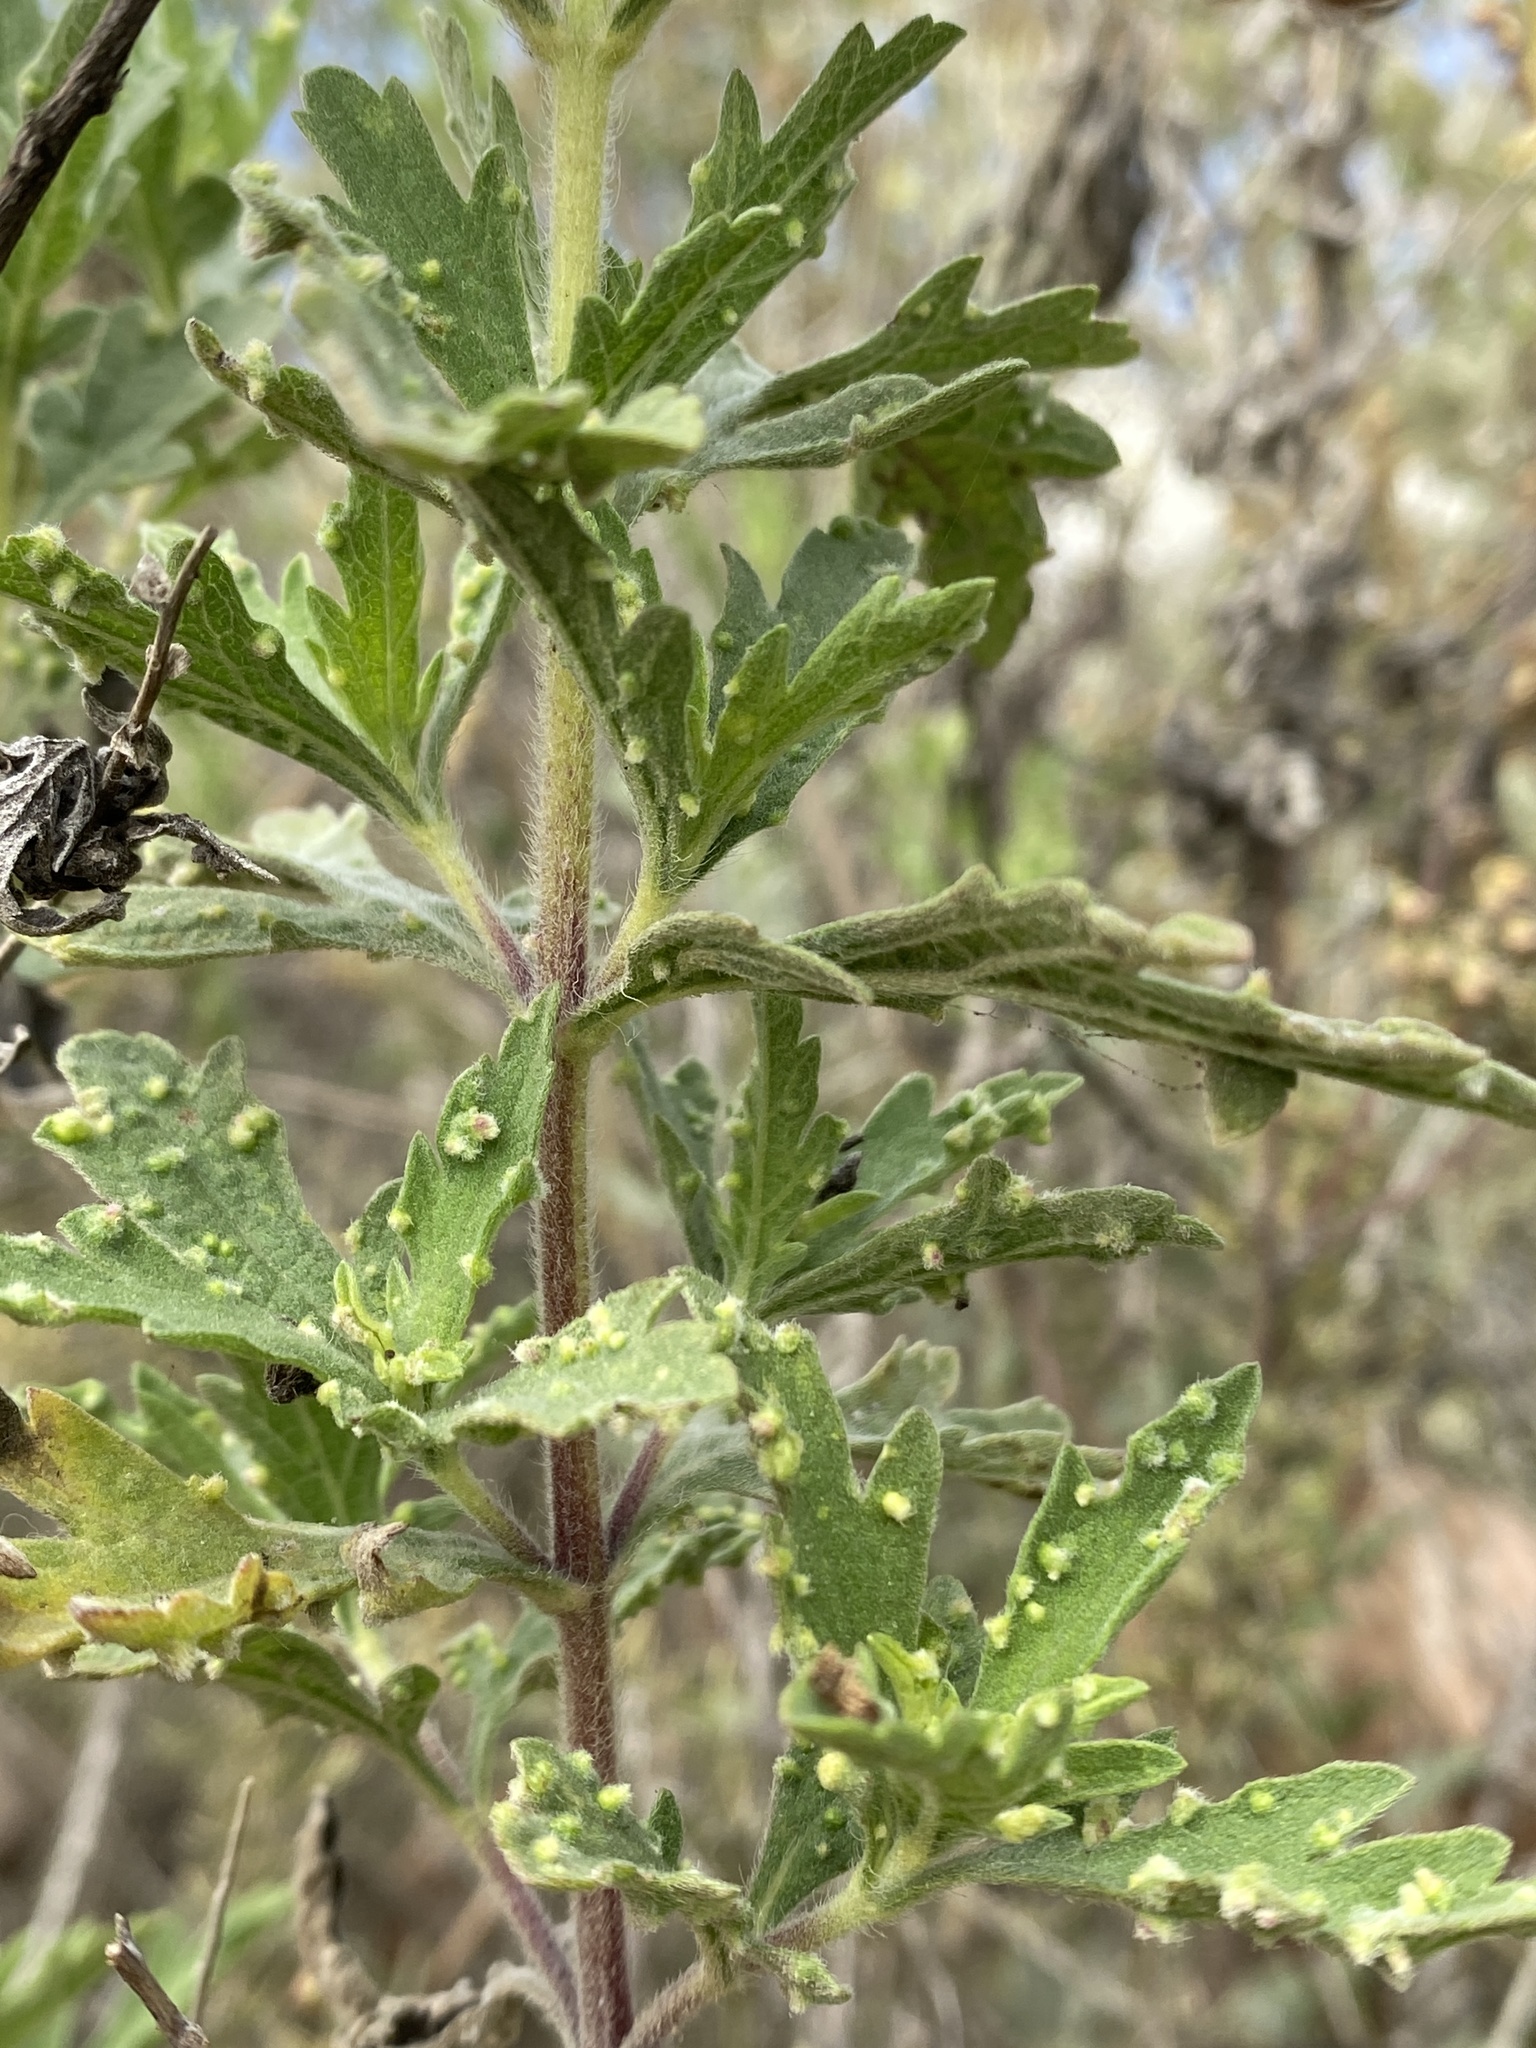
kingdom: Animalia
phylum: Arthropoda
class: Arachnida
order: Trombidiformes
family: Eriophyidae
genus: Aceria
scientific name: Aceria
